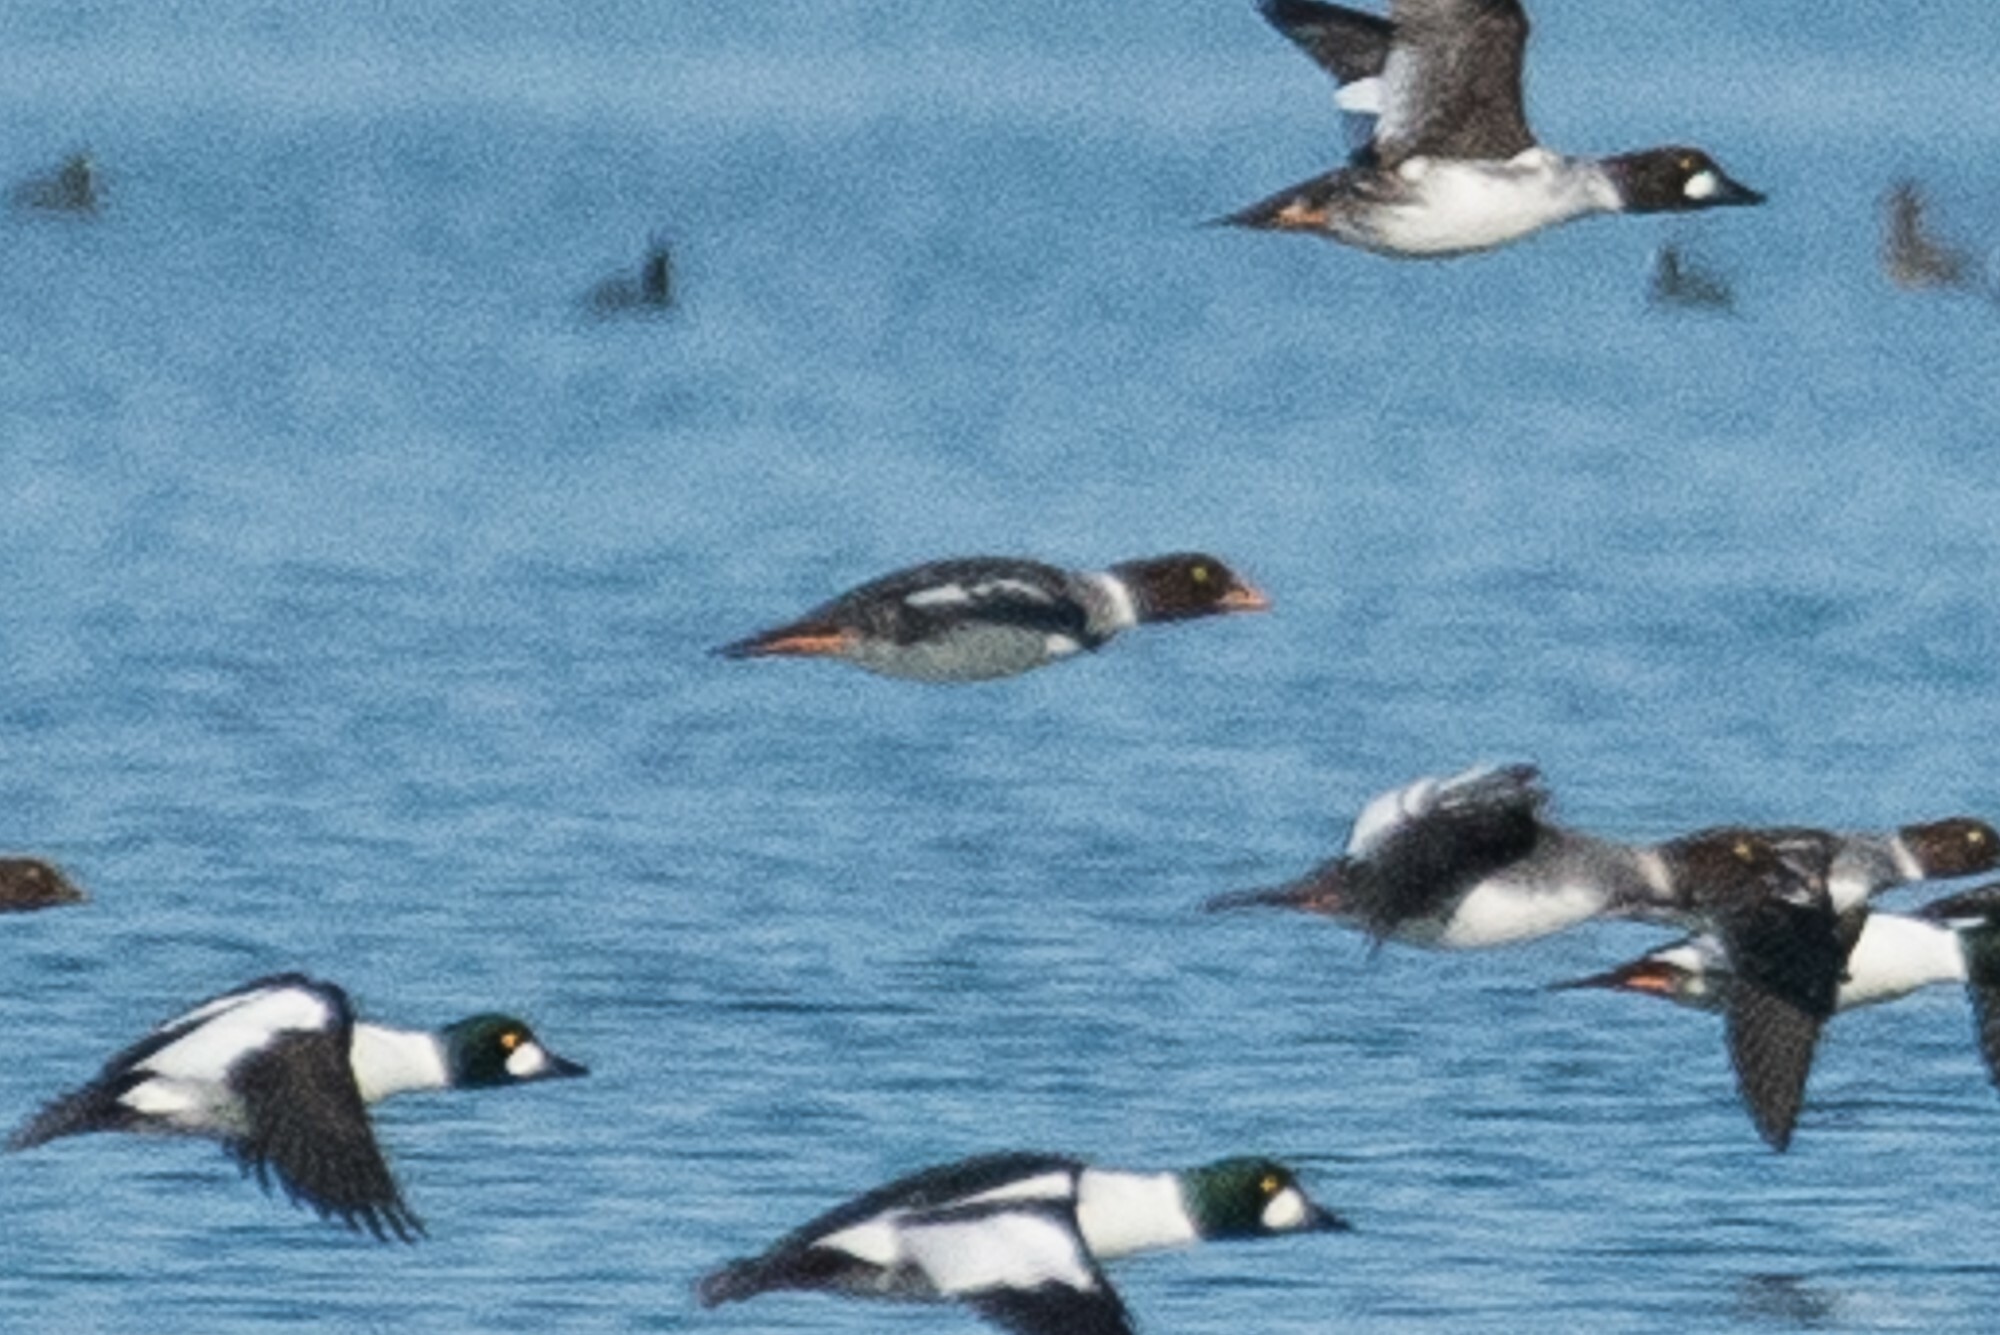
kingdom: Animalia
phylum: Chordata
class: Aves
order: Anseriformes
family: Anatidae
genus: Bucephala
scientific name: Bucephala islandica
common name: Barrow's goldeneye
